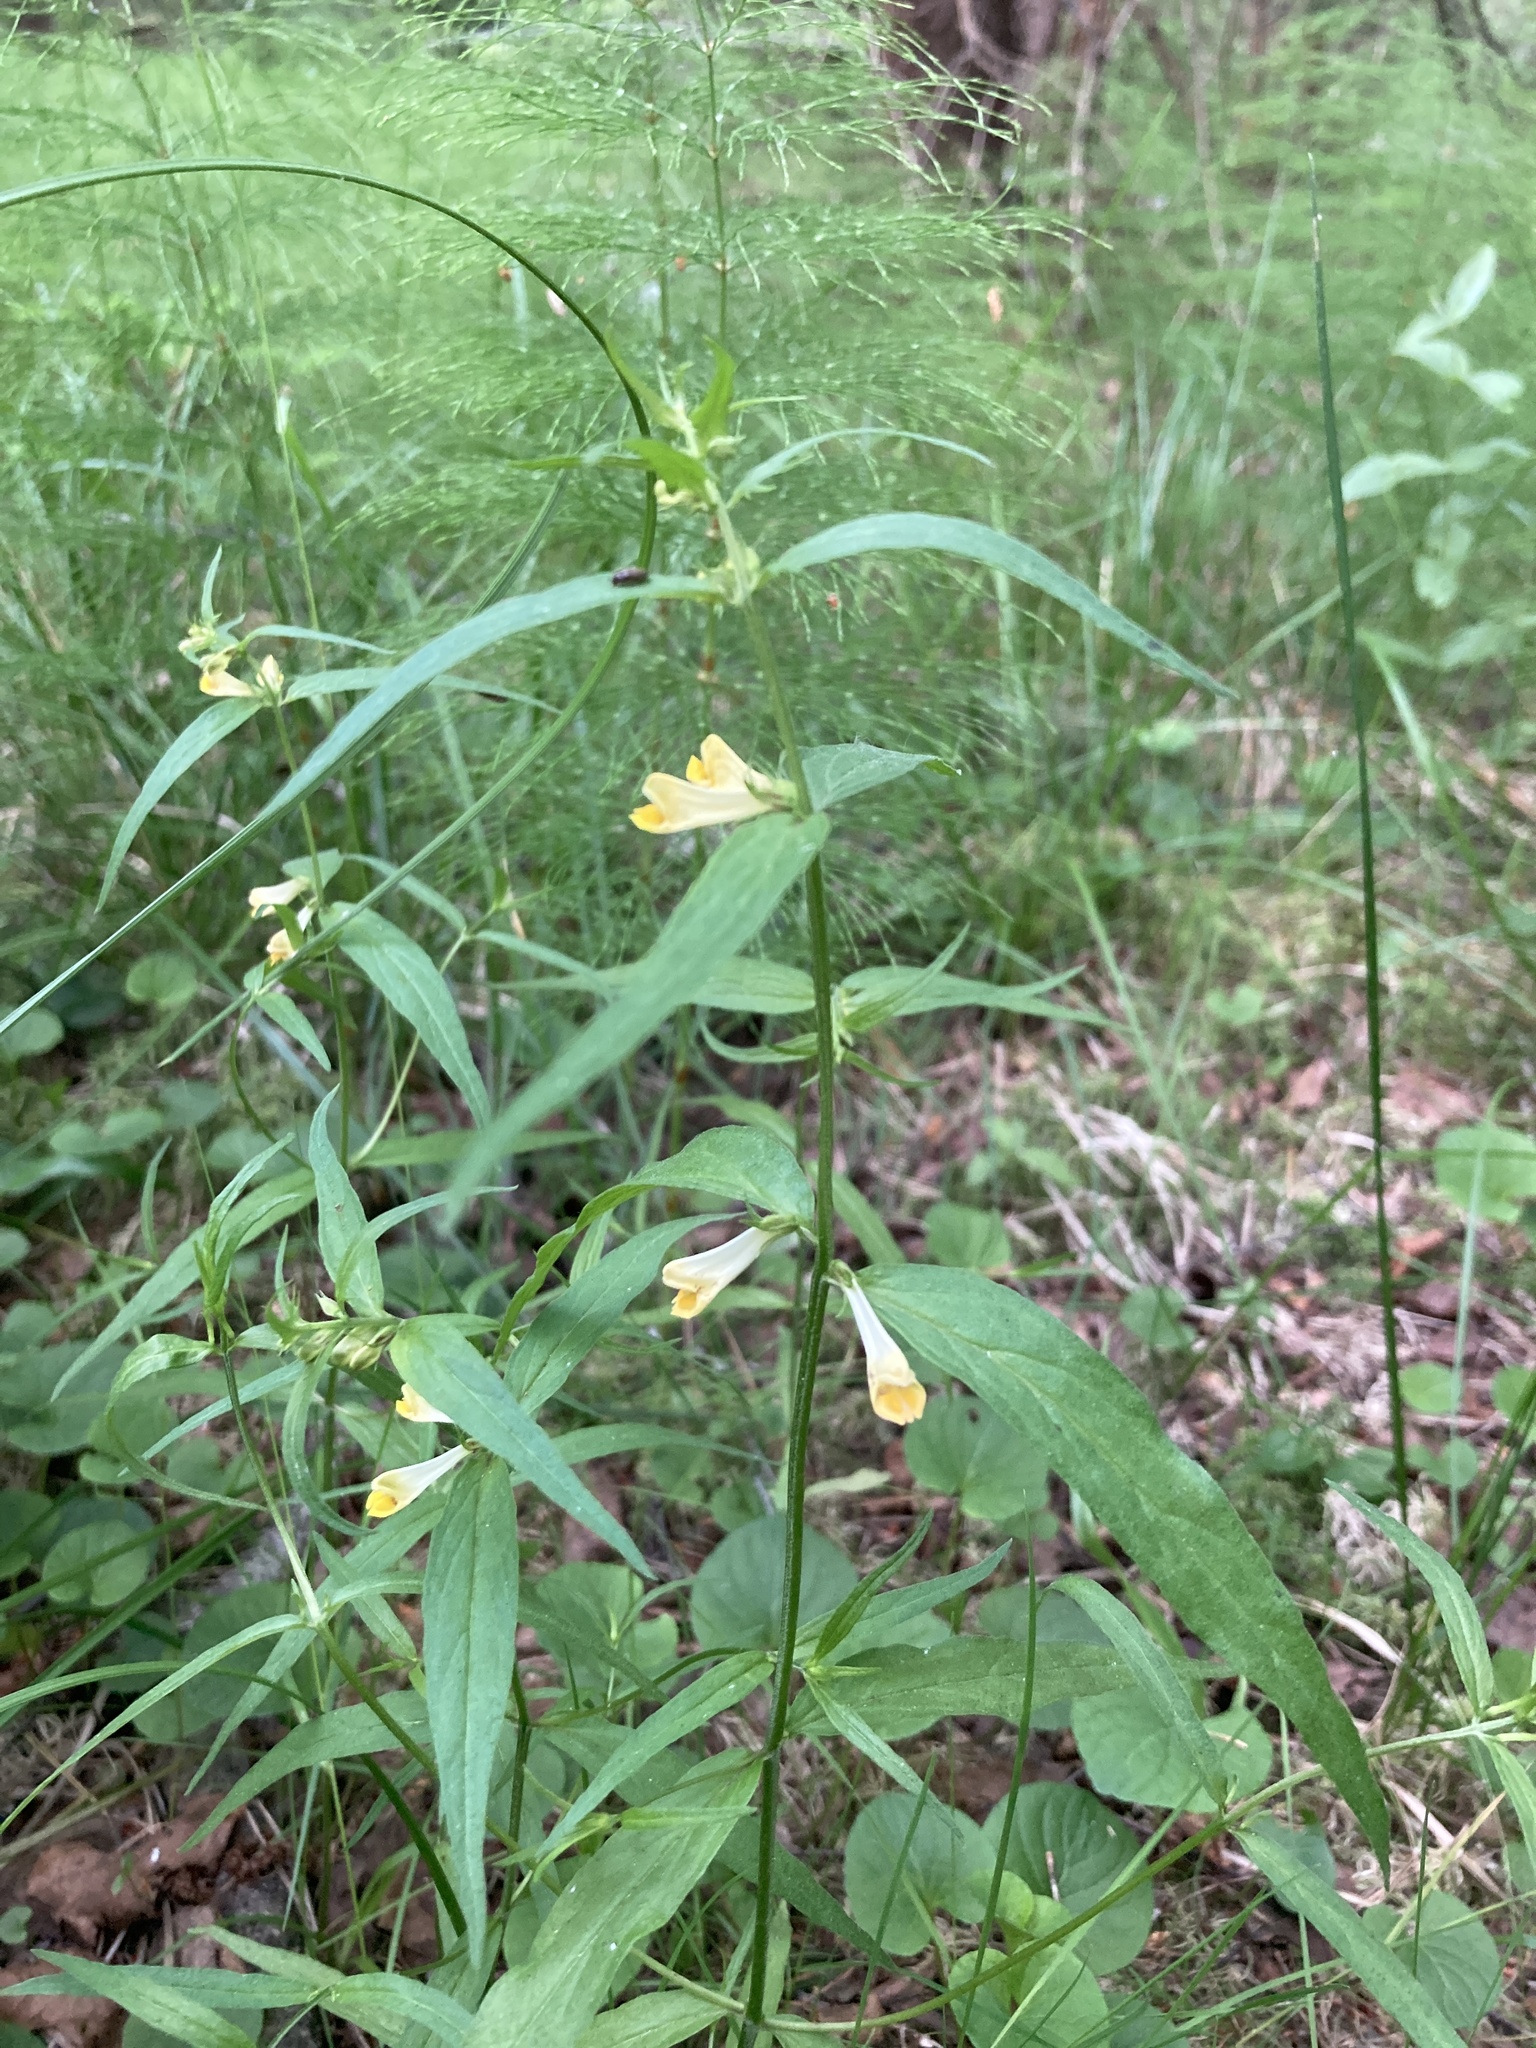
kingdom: Plantae
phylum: Tracheophyta
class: Magnoliopsida
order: Lamiales
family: Orobanchaceae
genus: Melampyrum
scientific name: Melampyrum pratense
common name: Common cow-wheat
